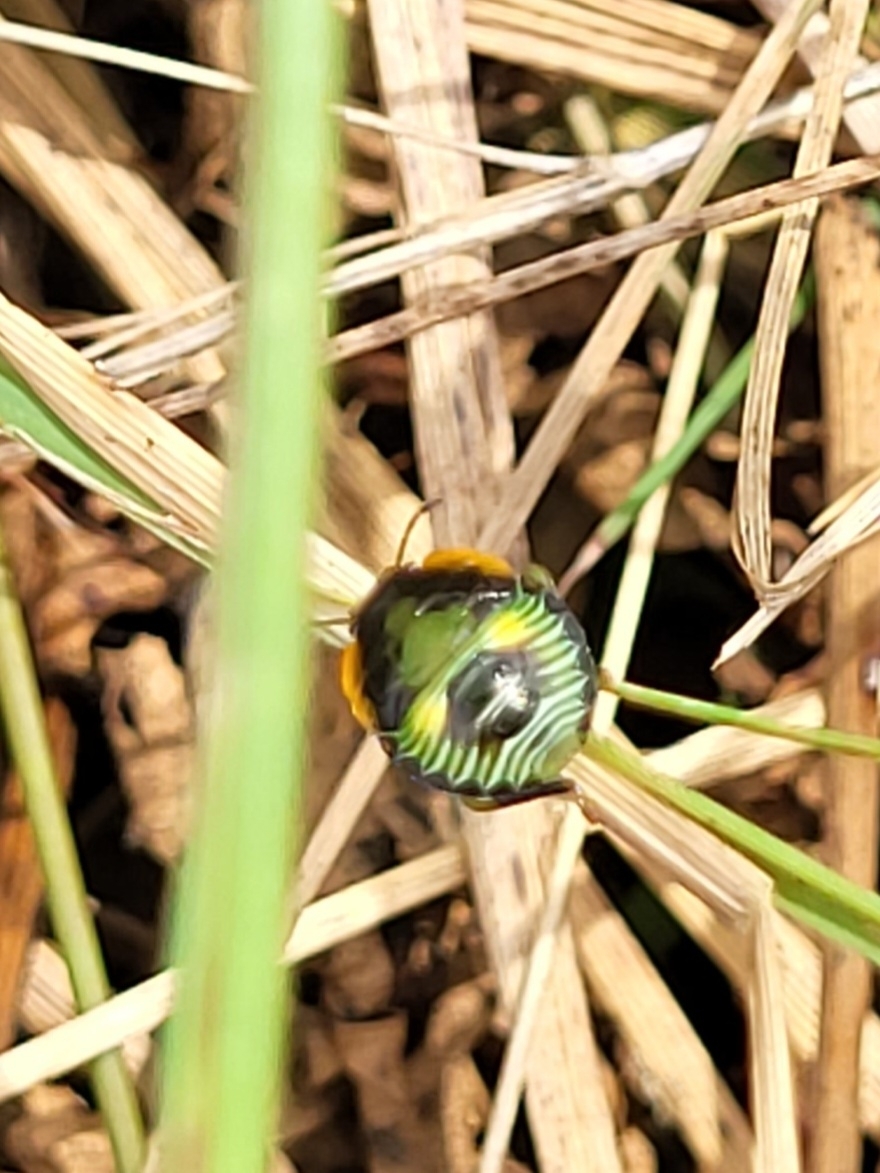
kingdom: Animalia
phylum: Arthropoda
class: Insecta
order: Hemiptera
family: Pentatomidae
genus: Chinavia
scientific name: Chinavia hilaris
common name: Green stink bug
